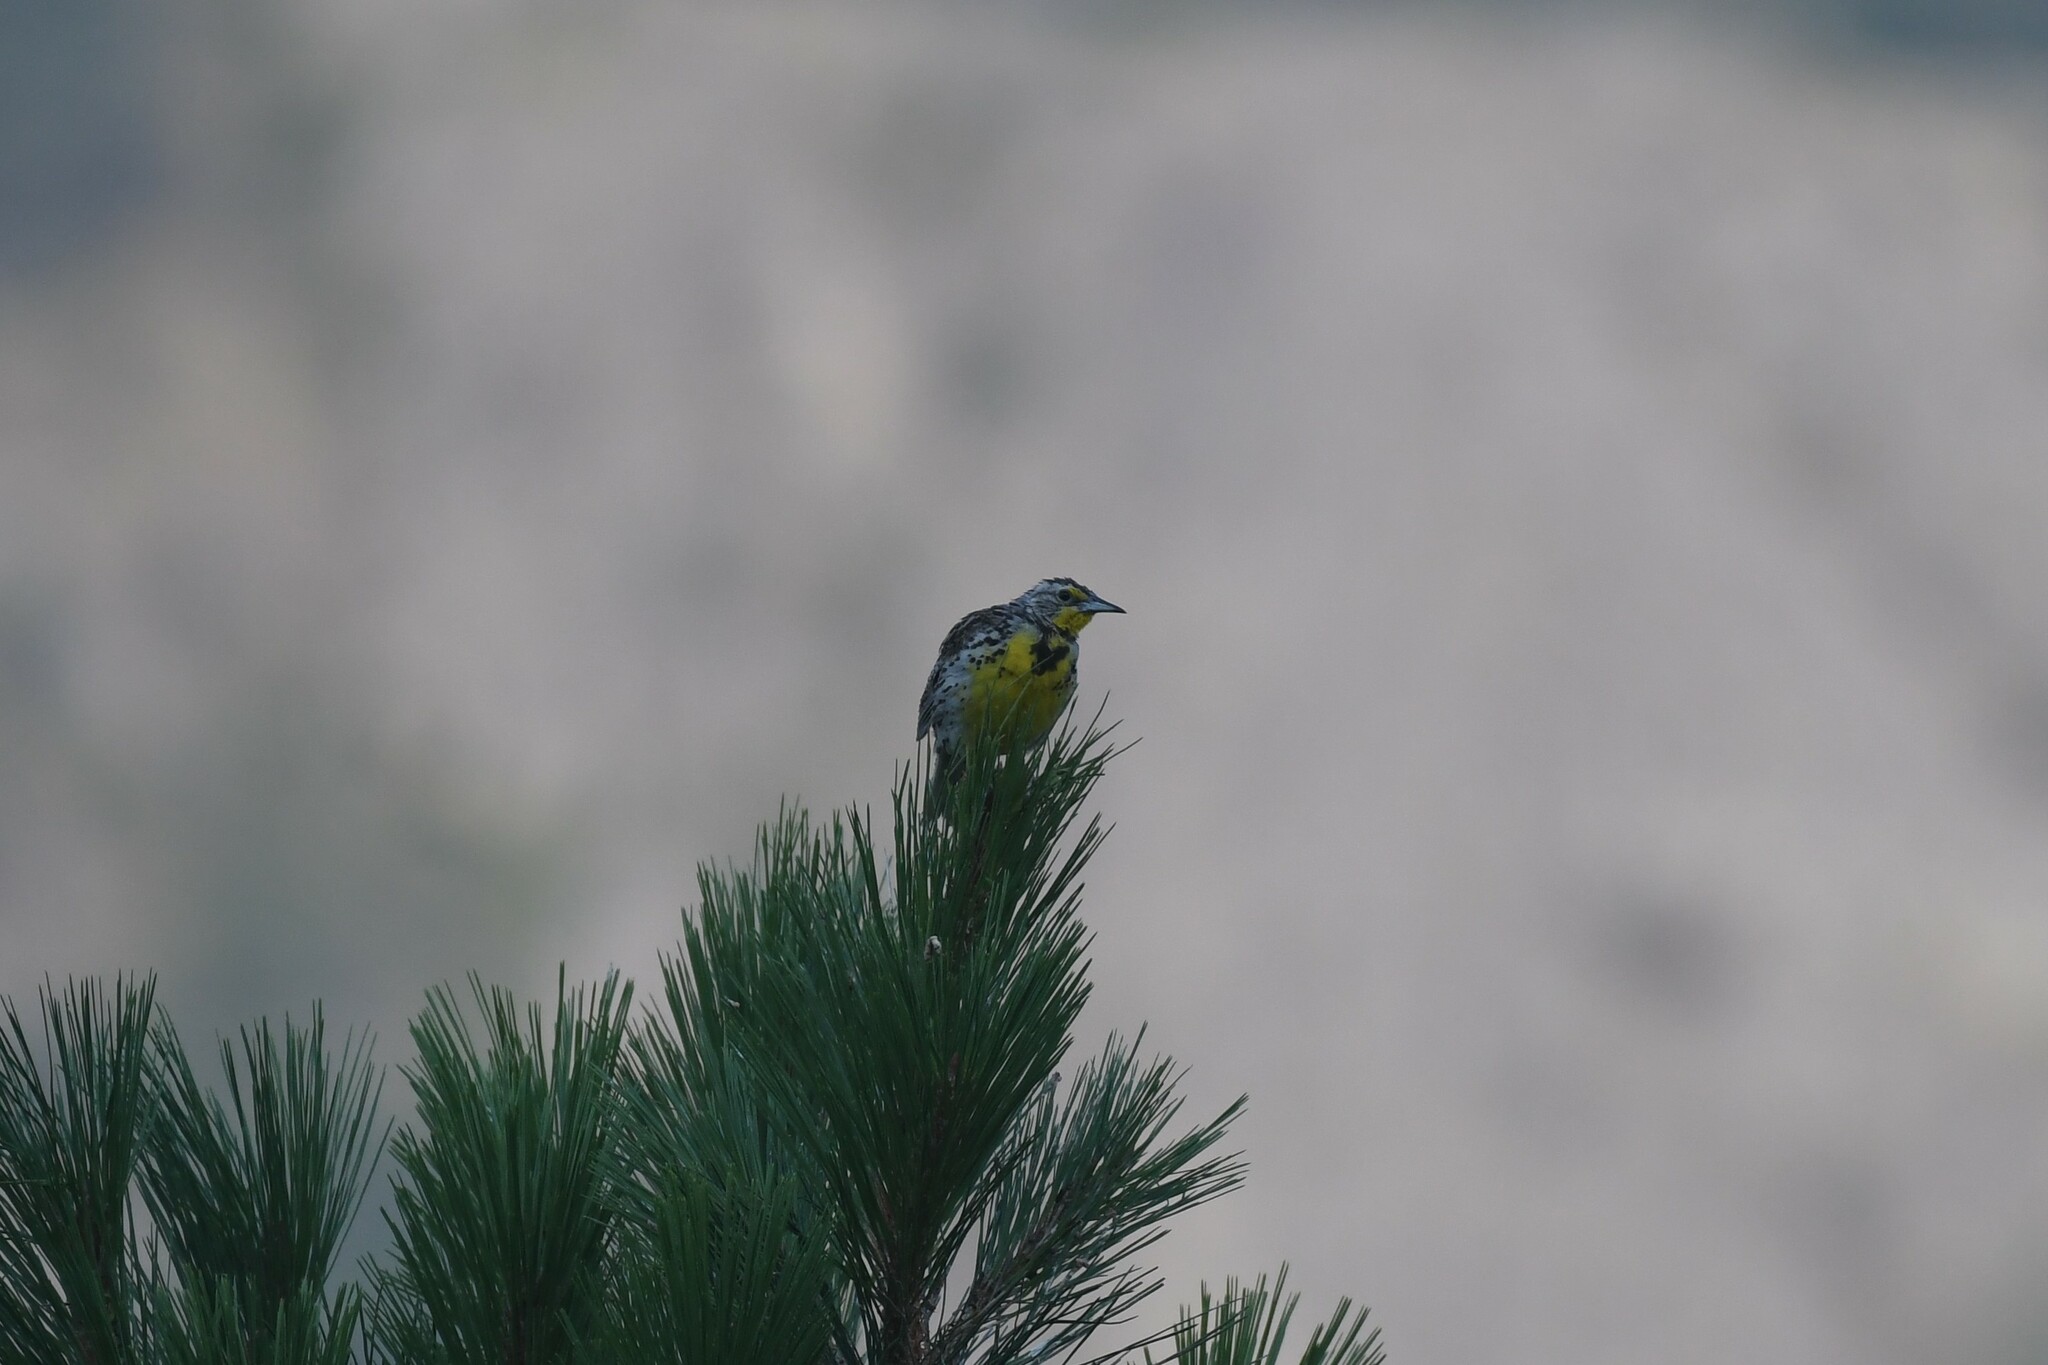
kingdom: Animalia
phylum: Chordata
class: Aves
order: Passeriformes
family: Icteridae
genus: Sturnella
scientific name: Sturnella neglecta
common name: Western meadowlark
